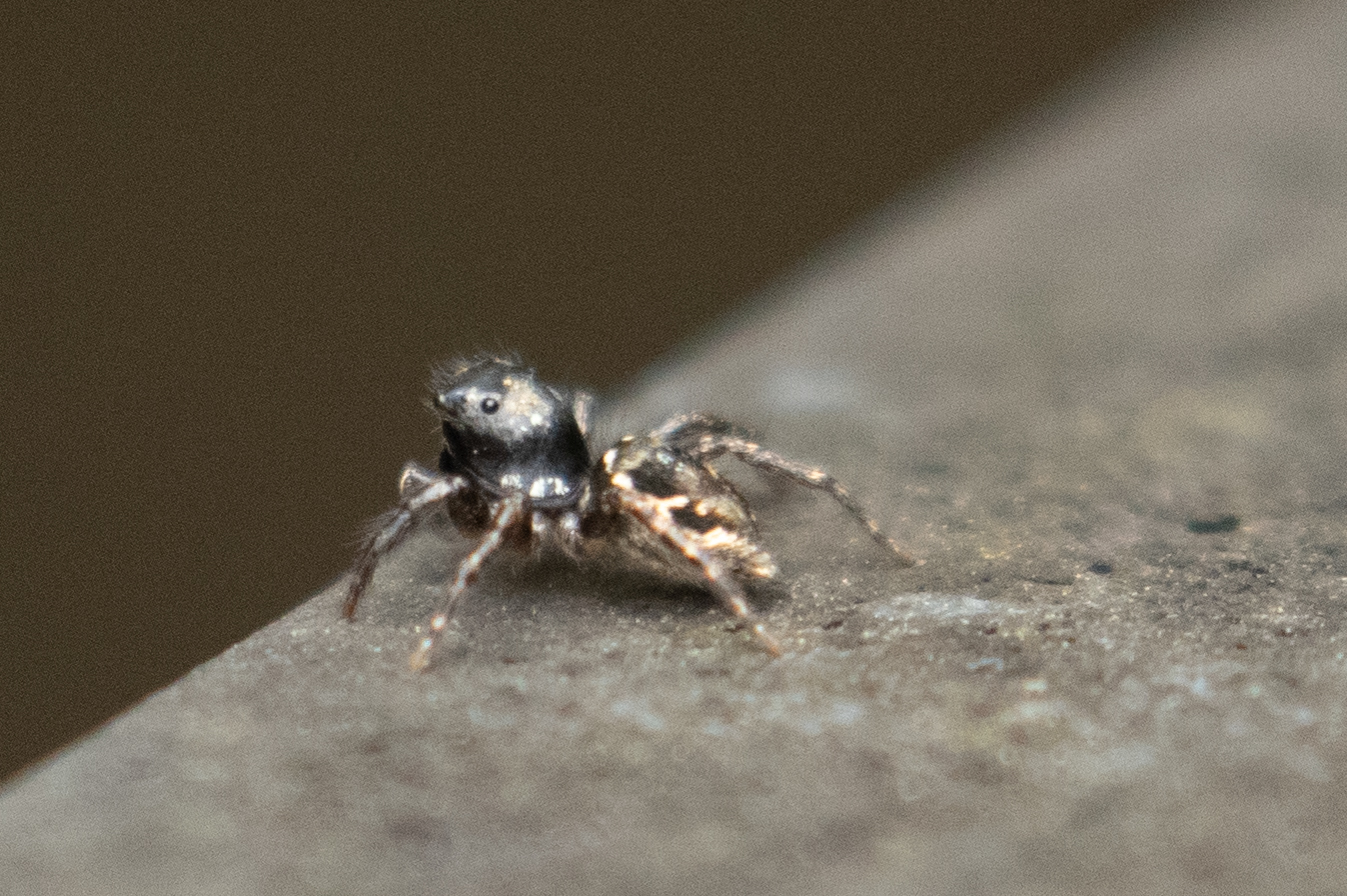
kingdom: Animalia
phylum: Arthropoda
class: Arachnida
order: Araneae
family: Salticidae
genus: Anasaitis
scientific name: Anasaitis canosa
